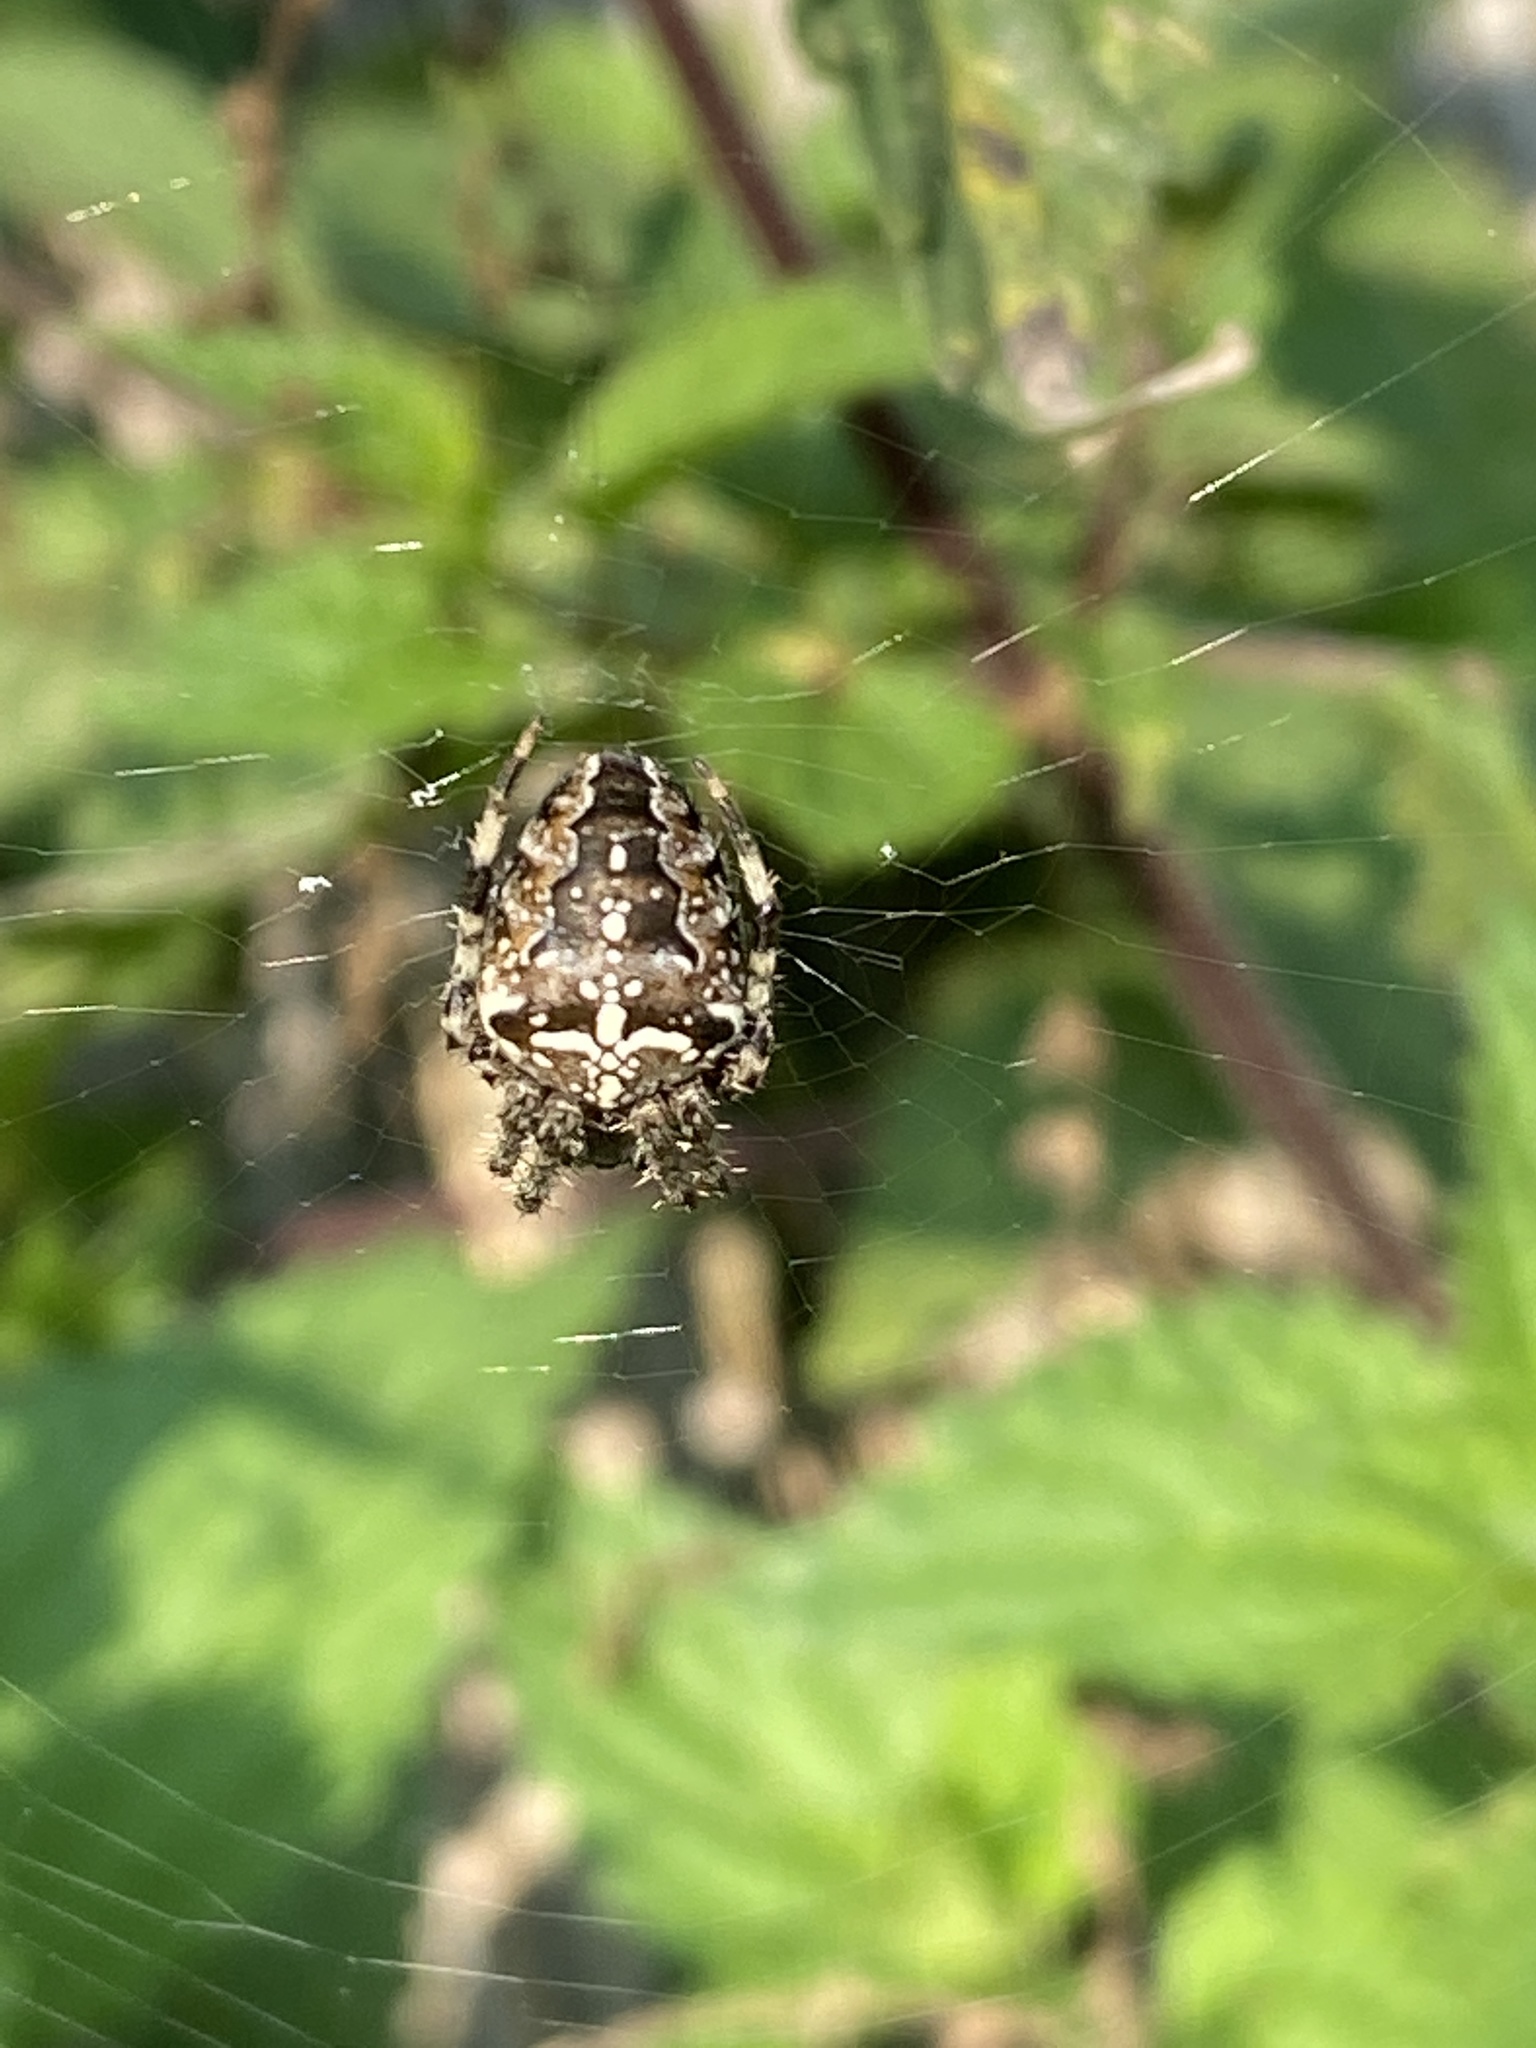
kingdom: Animalia
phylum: Arthropoda
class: Arachnida
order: Araneae
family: Araneidae
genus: Araneus
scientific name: Araneus diadematus
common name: Cross orbweaver
